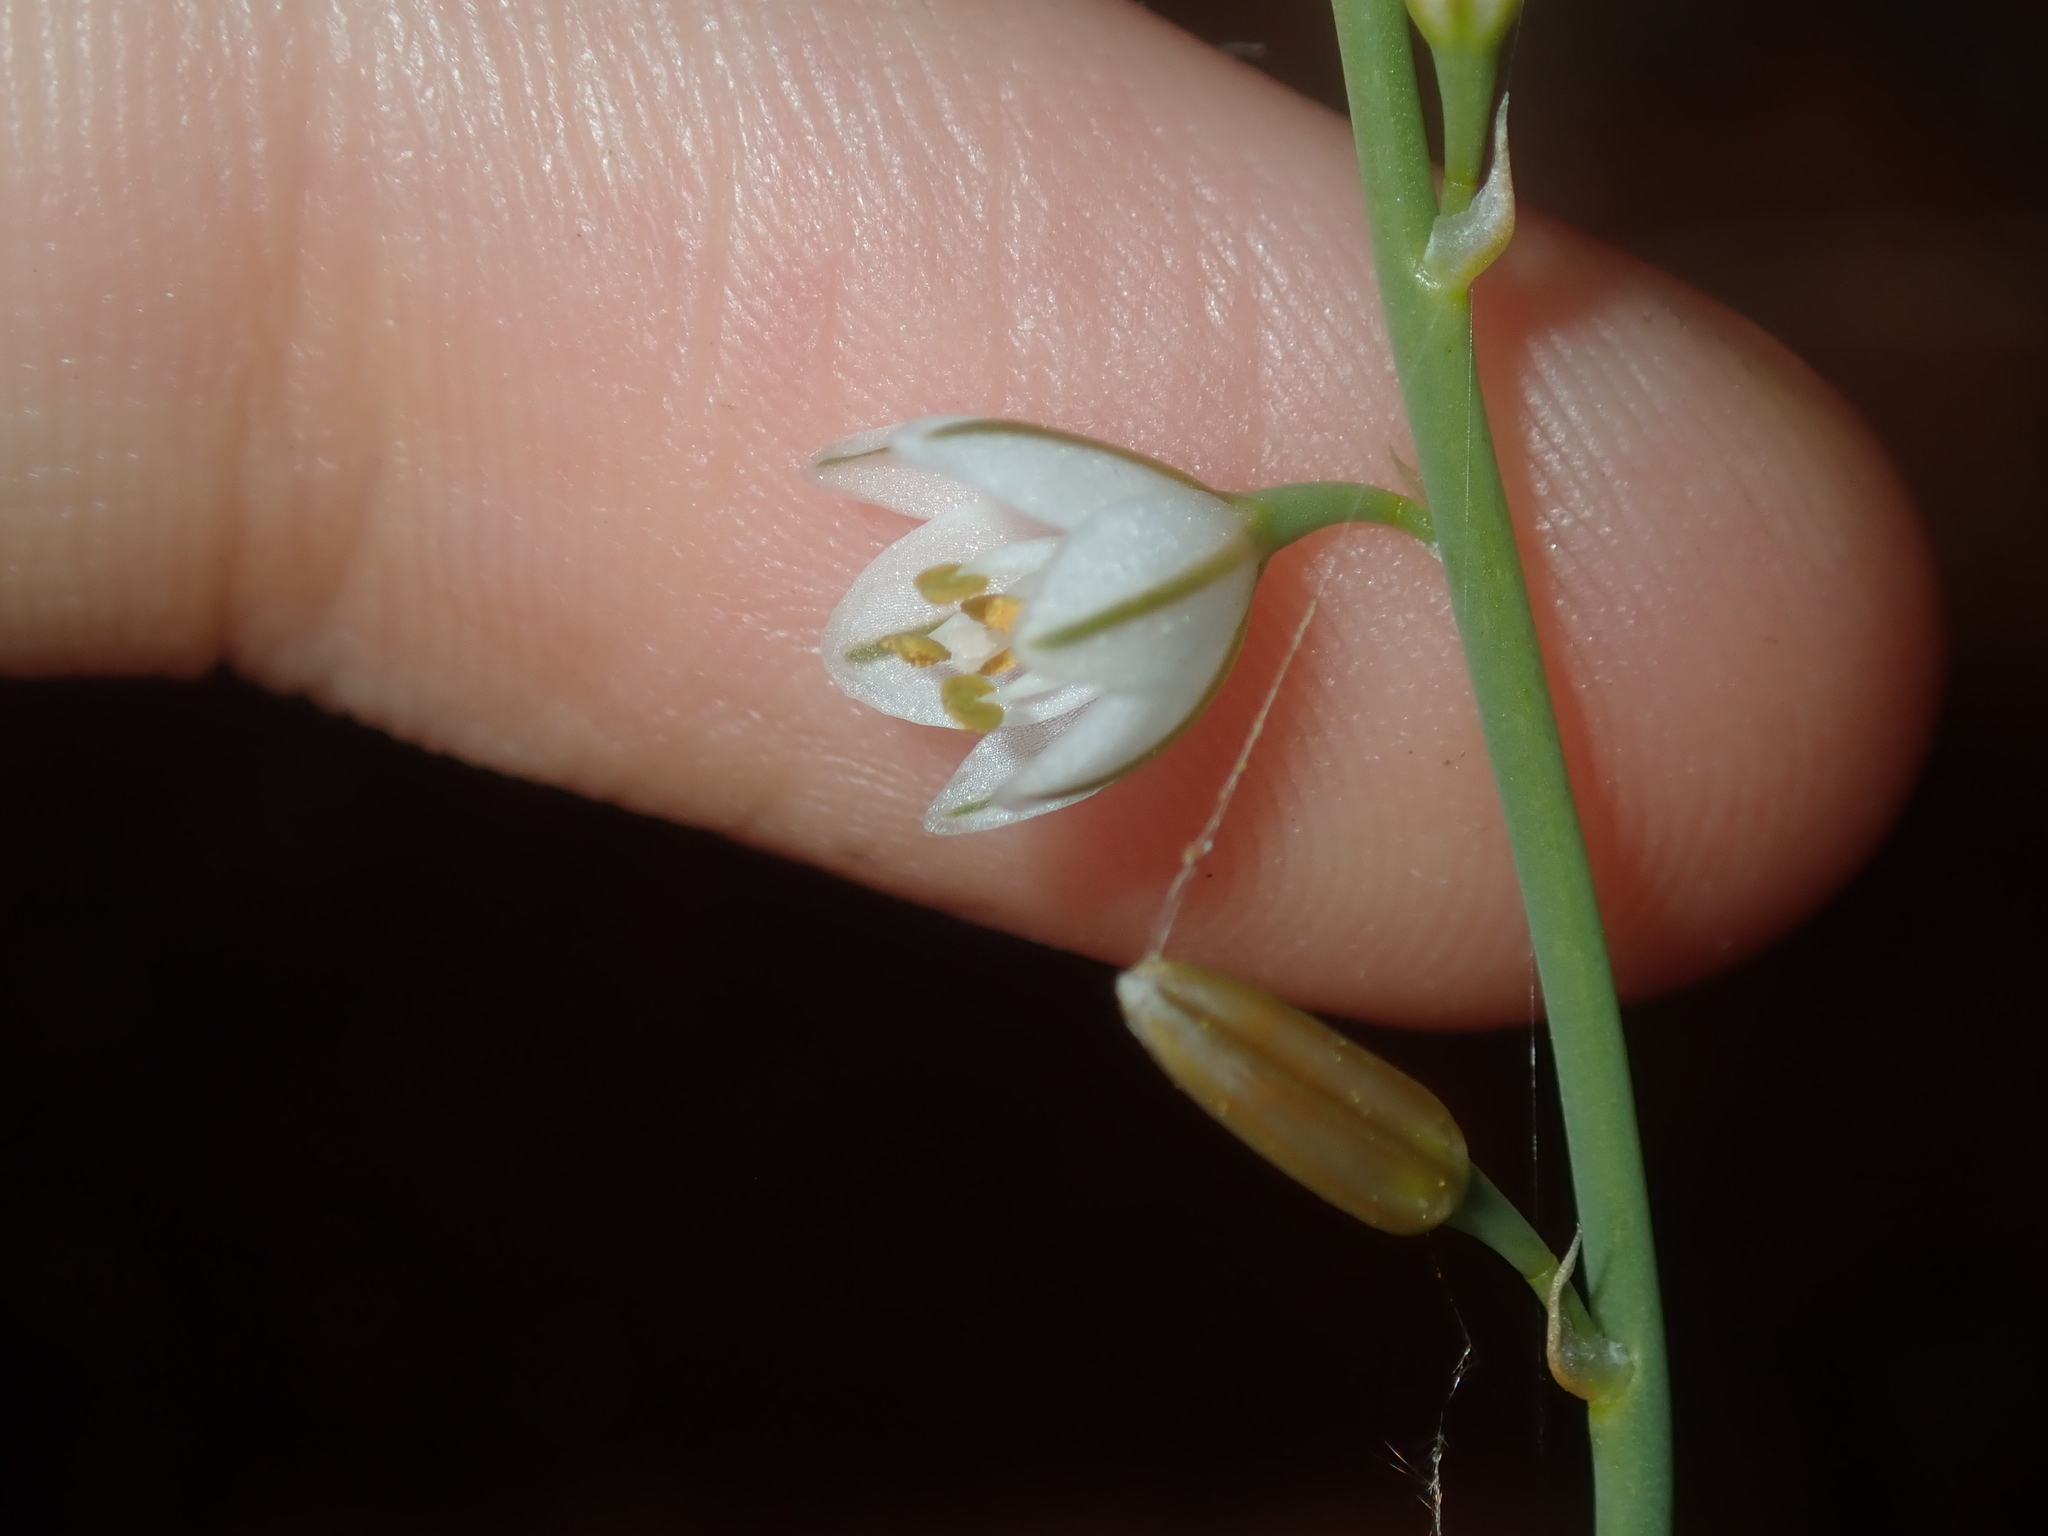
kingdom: Plantae
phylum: Tracheophyta
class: Liliopsida
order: Asparagales
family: Asphodelaceae
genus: Asphodelus
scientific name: Asphodelus fistulosus
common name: Onionweed
